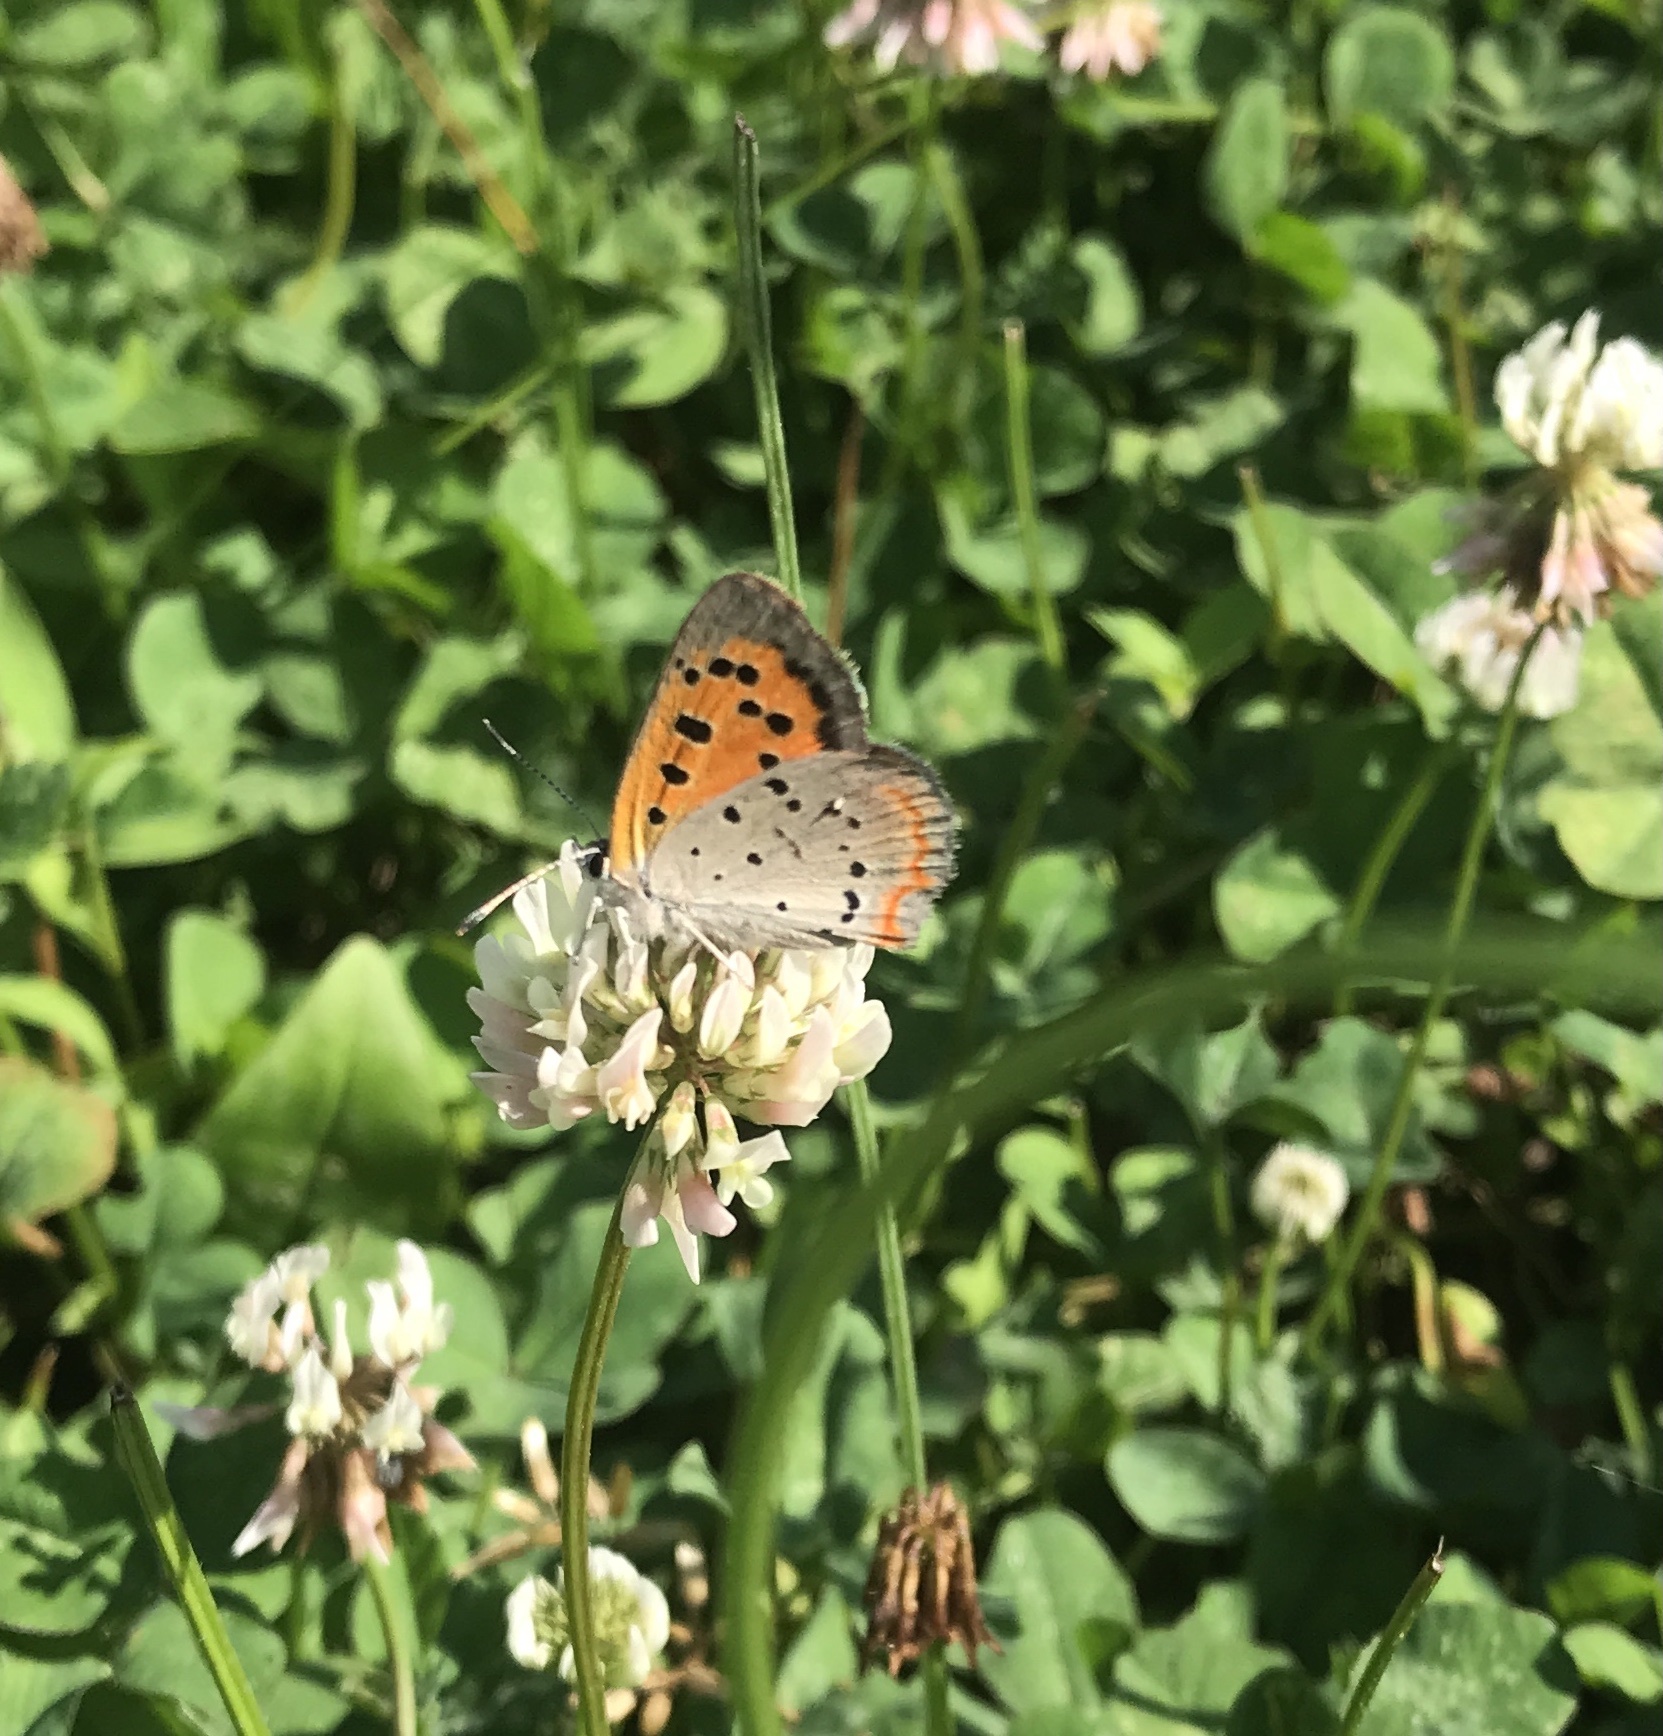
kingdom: Animalia
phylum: Arthropoda
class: Insecta
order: Lepidoptera
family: Lycaenidae
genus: Lycaena
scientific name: Lycaena hypophlaeas
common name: American copper
